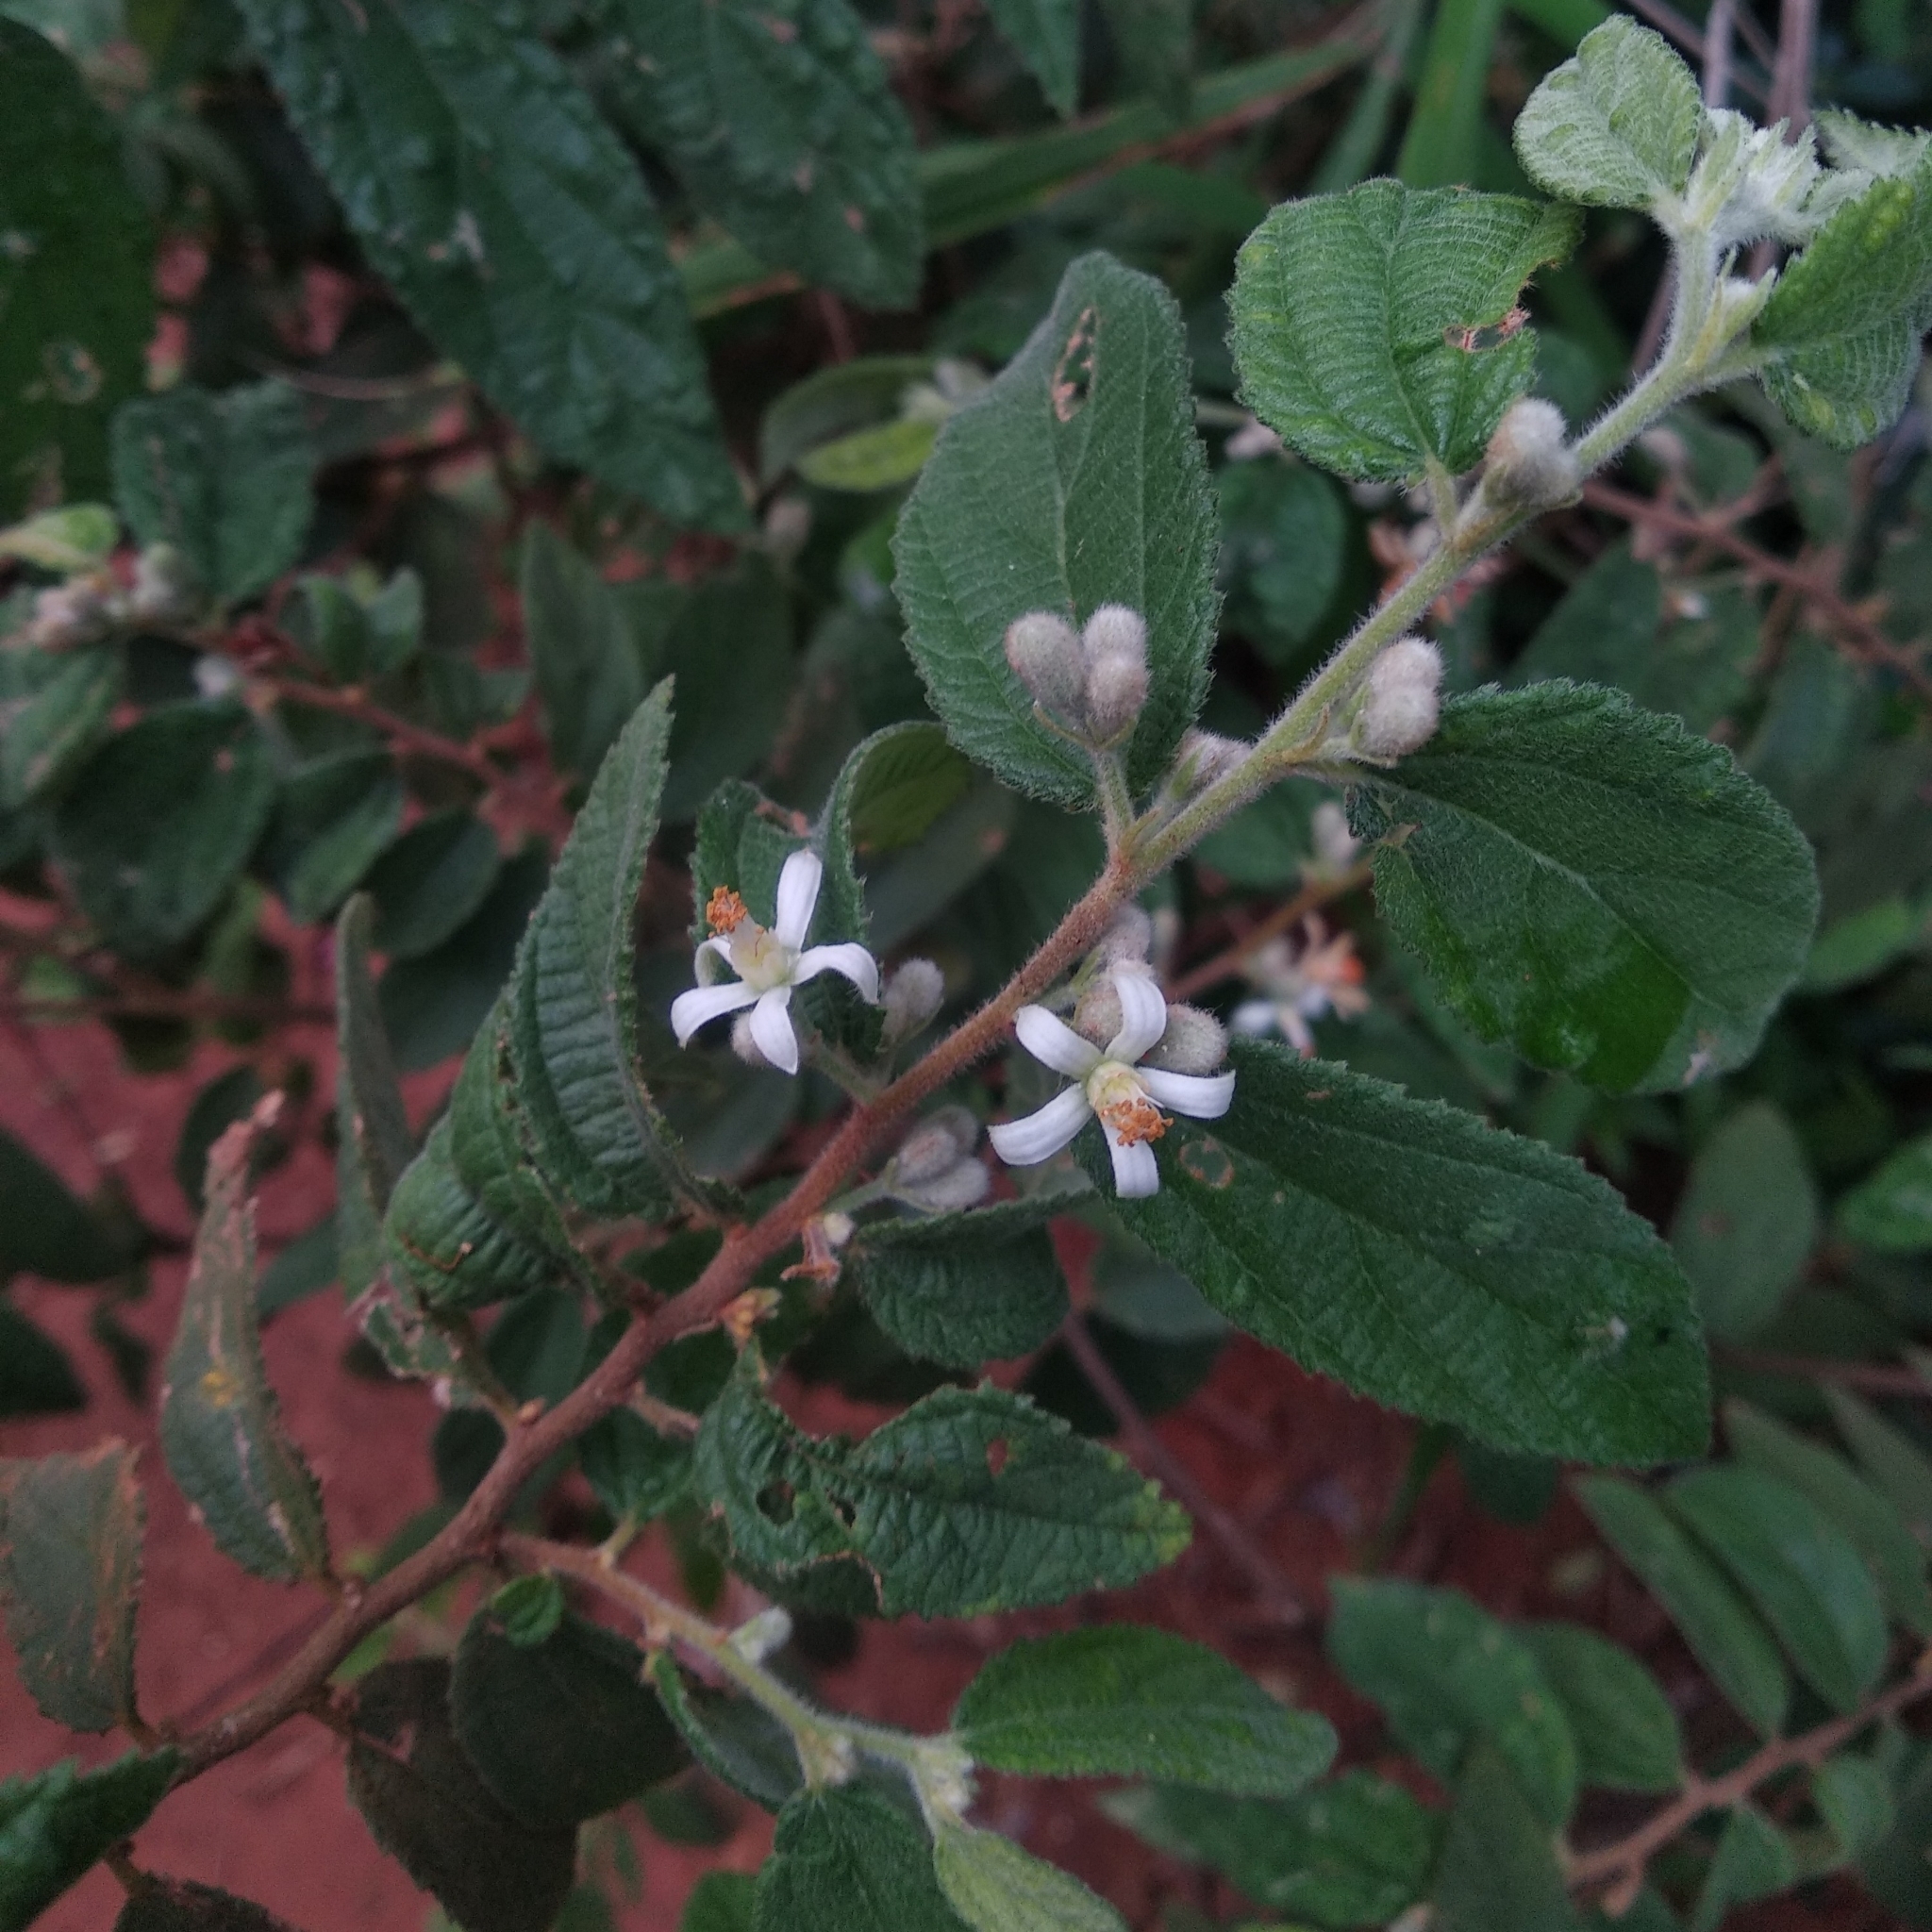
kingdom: Plantae
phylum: Tracheophyta
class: Magnoliopsida
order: Malvales
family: Malvaceae
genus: Grewia
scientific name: Grewia hirsuta
